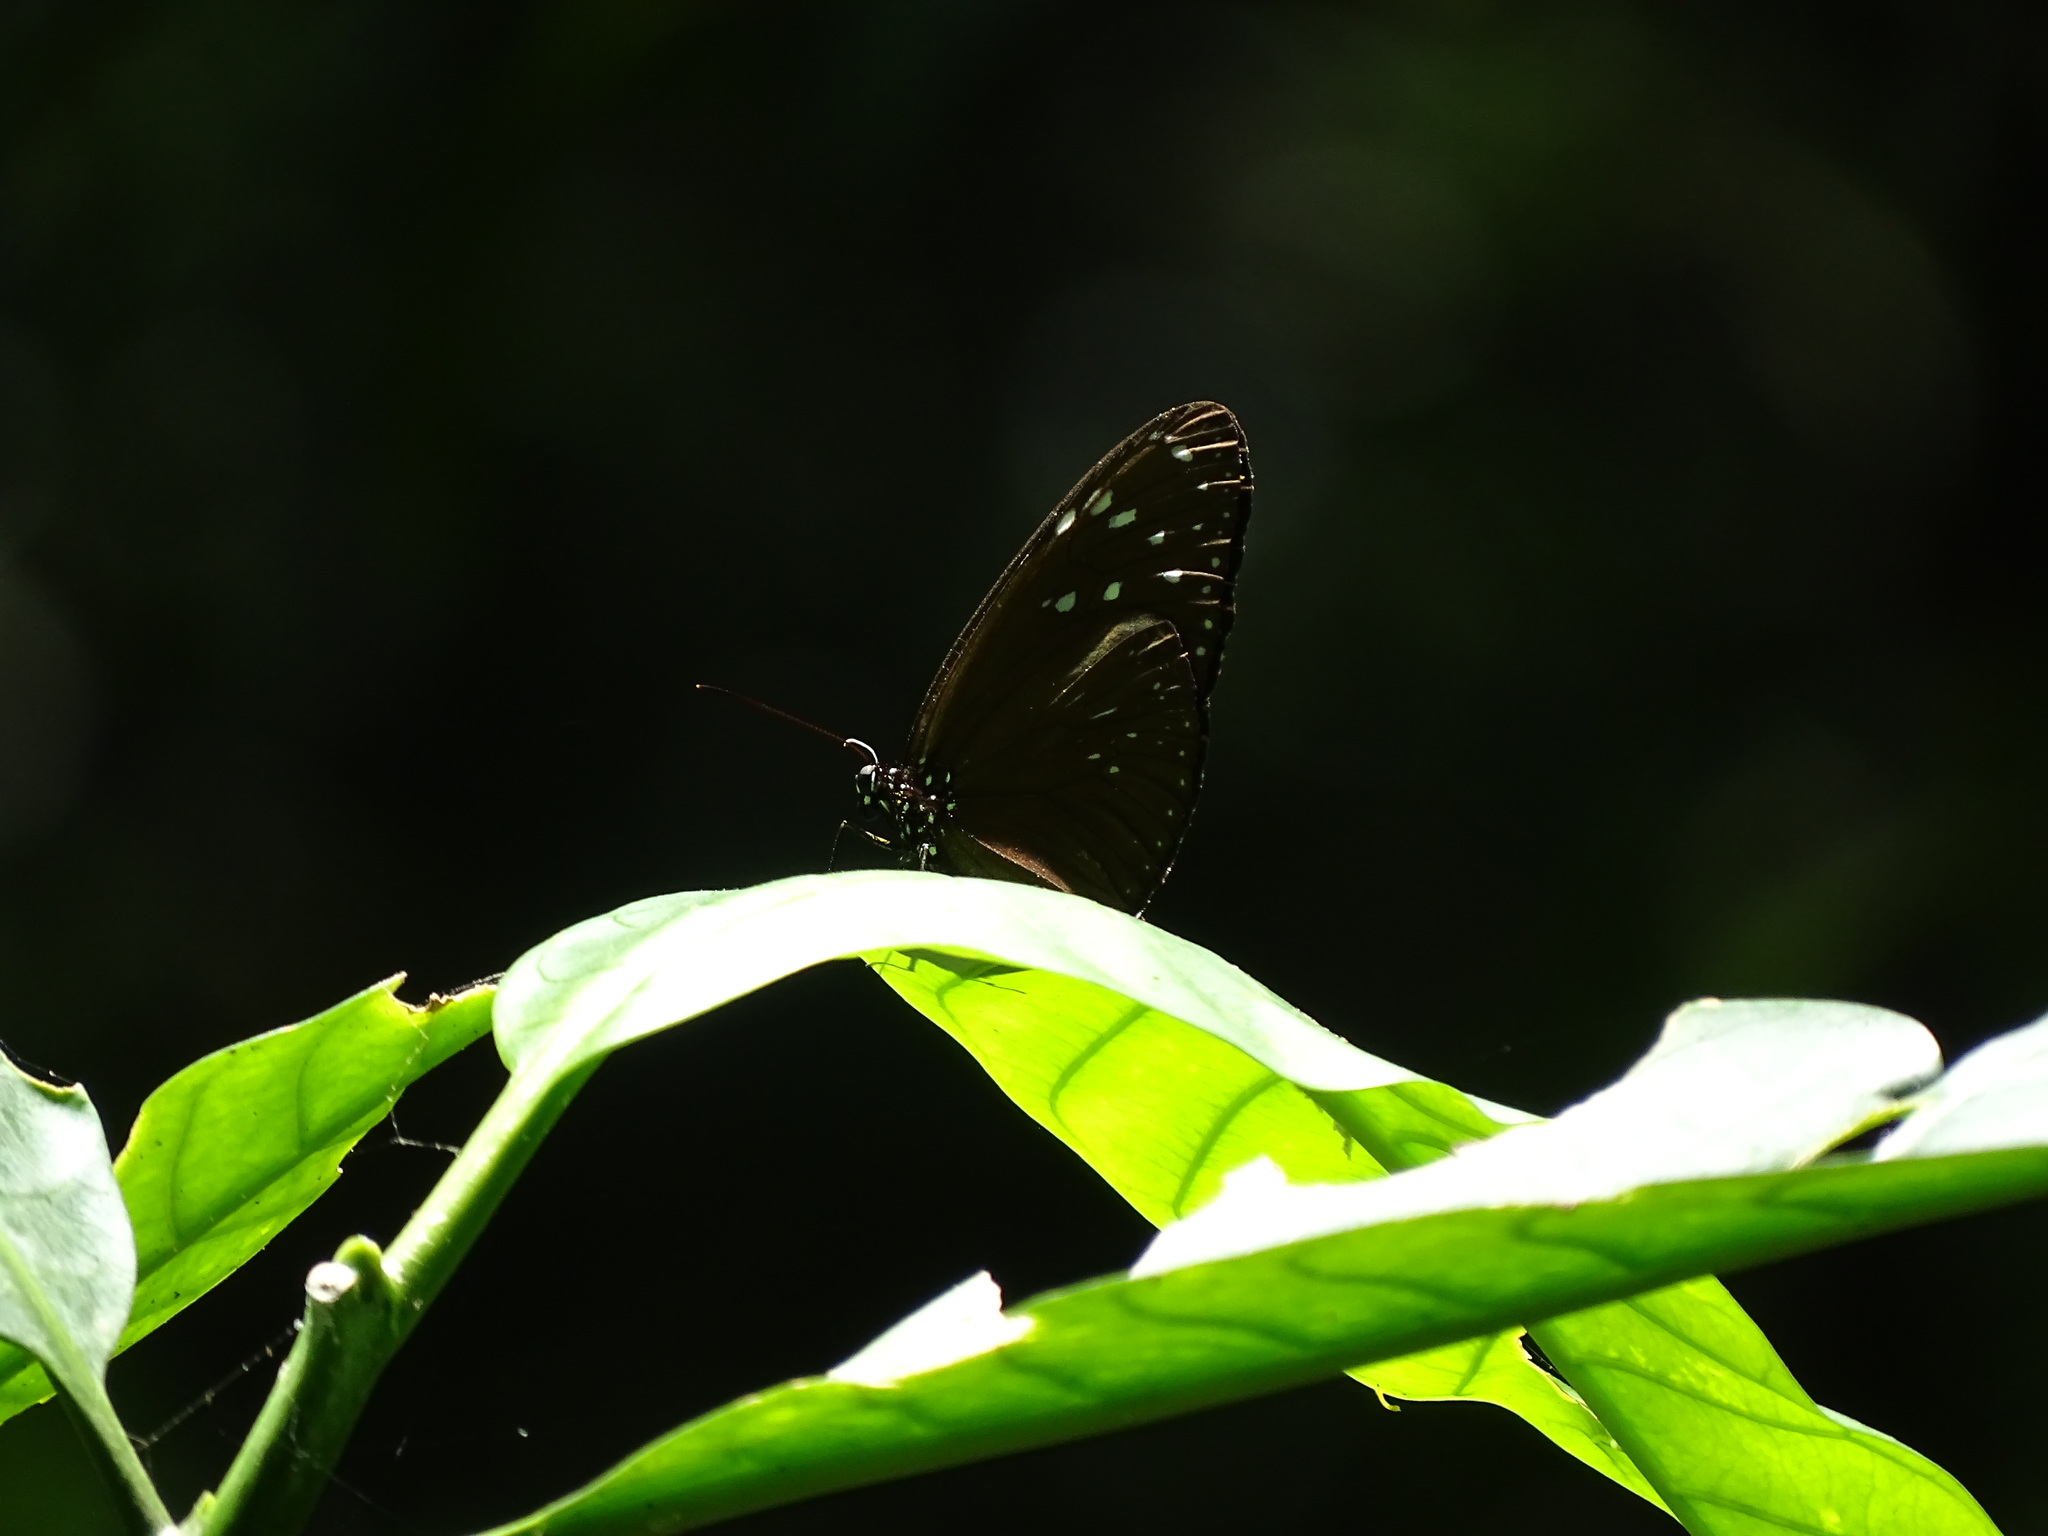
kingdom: Animalia
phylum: Arthropoda
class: Insecta
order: Lepidoptera
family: Nymphalidae
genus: Euploea
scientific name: Euploea mulciber
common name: Striped blue crow butterfly
